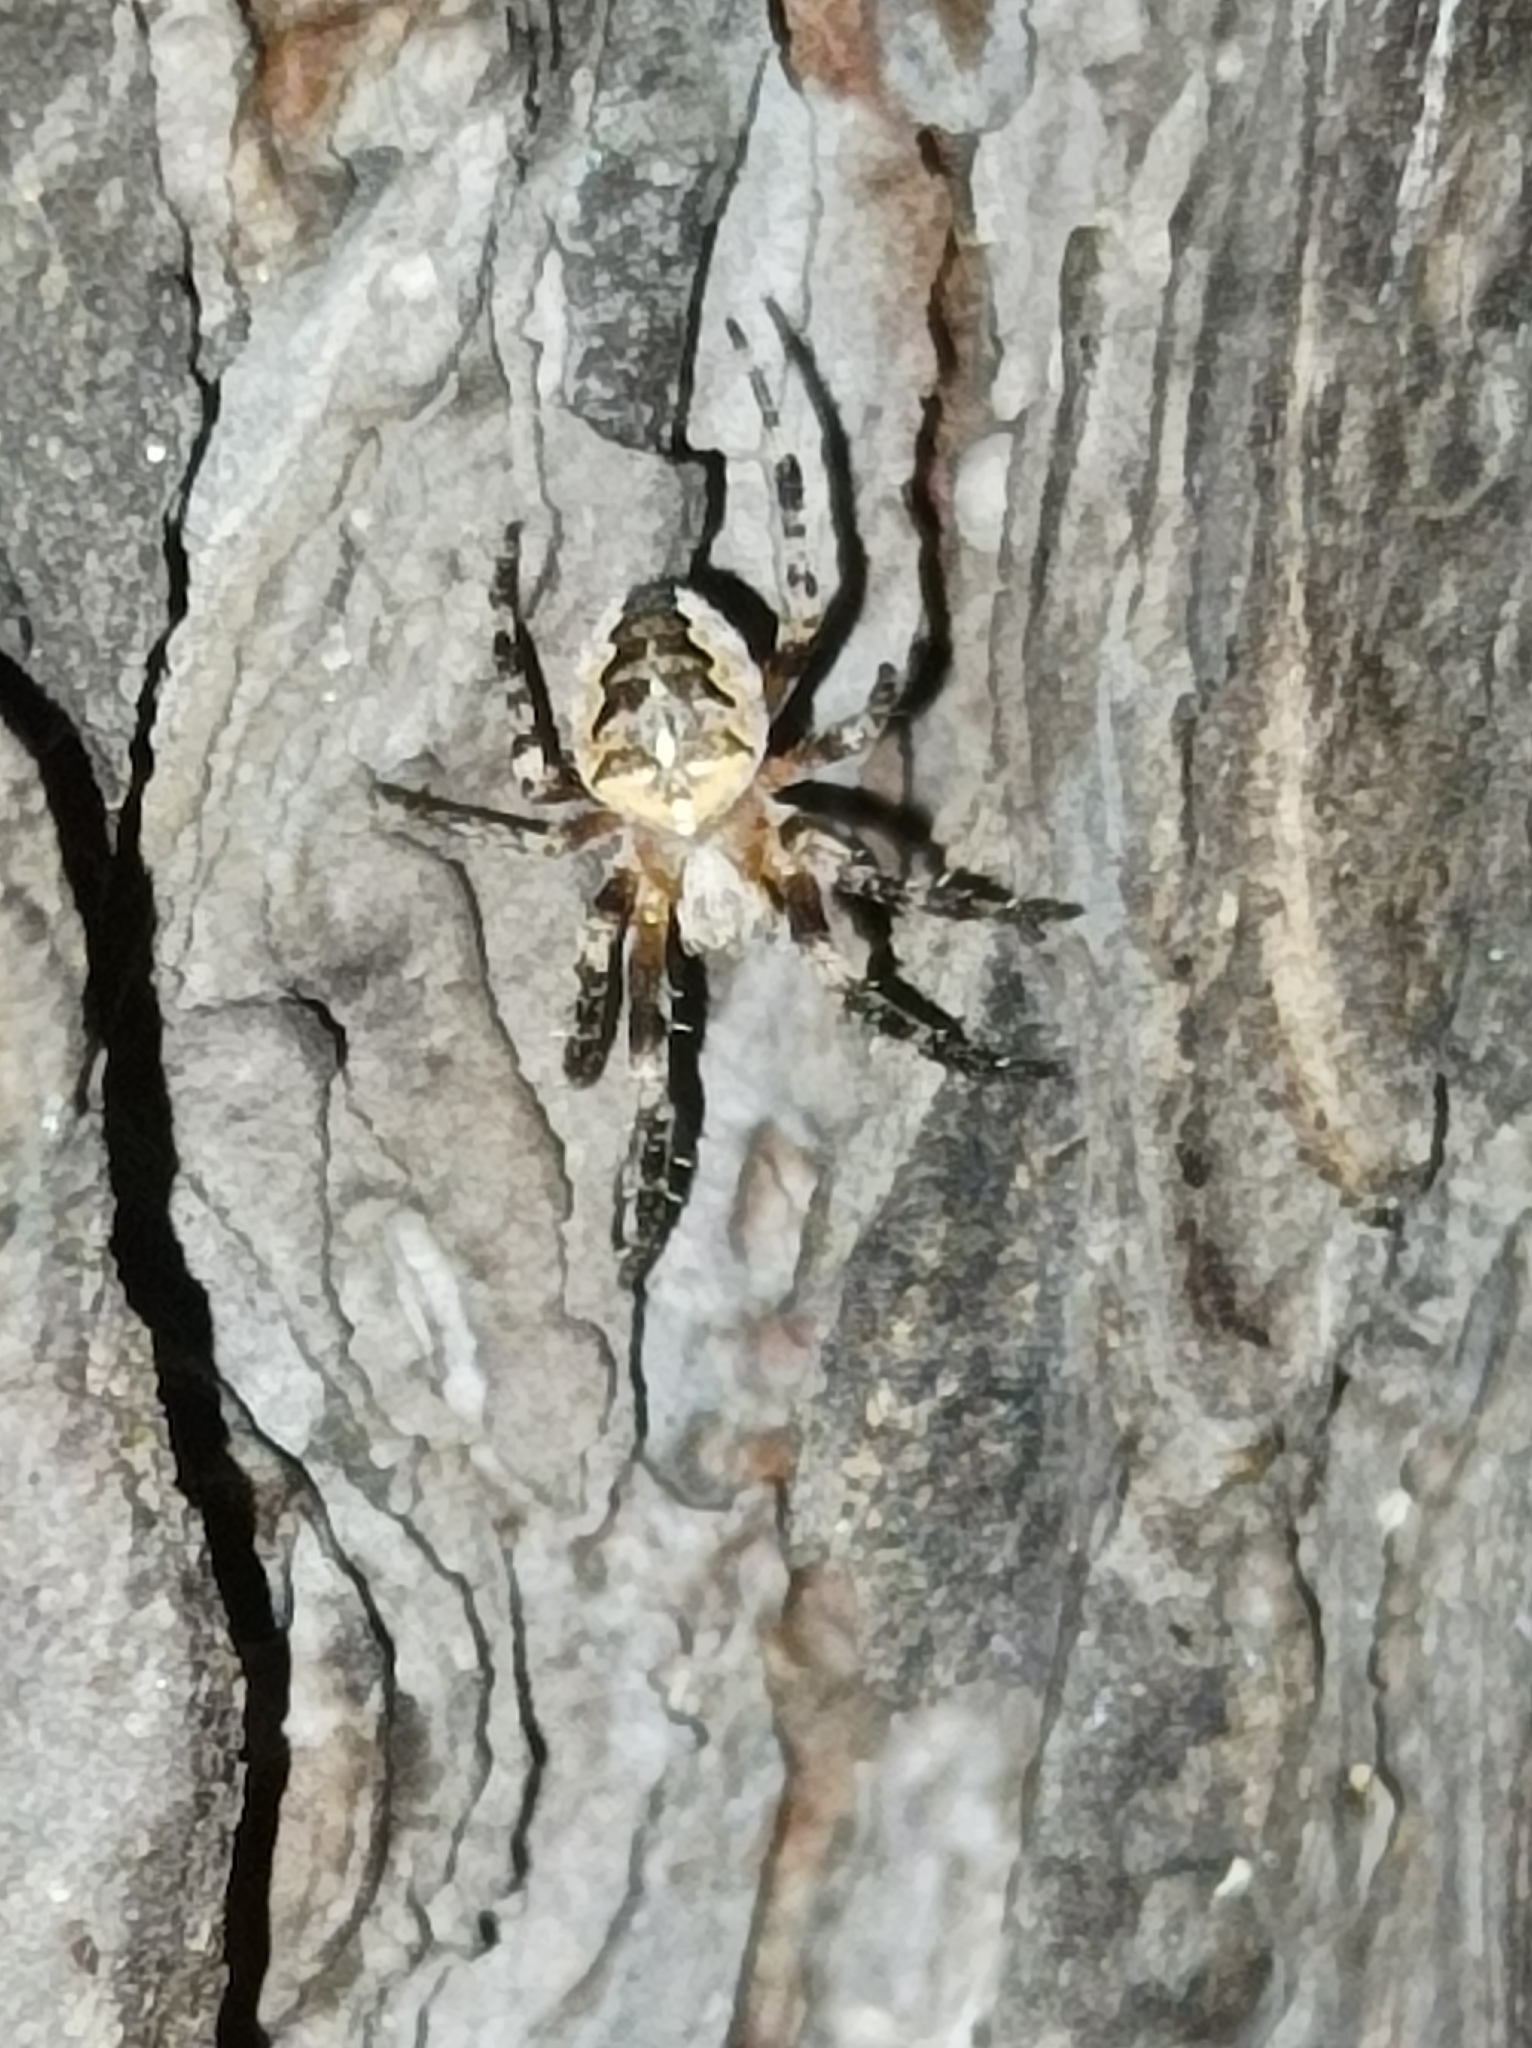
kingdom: Animalia
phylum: Arthropoda
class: Arachnida
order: Araneae
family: Araneidae
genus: Araneus
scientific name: Araneus diadematus
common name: Cross orbweaver
